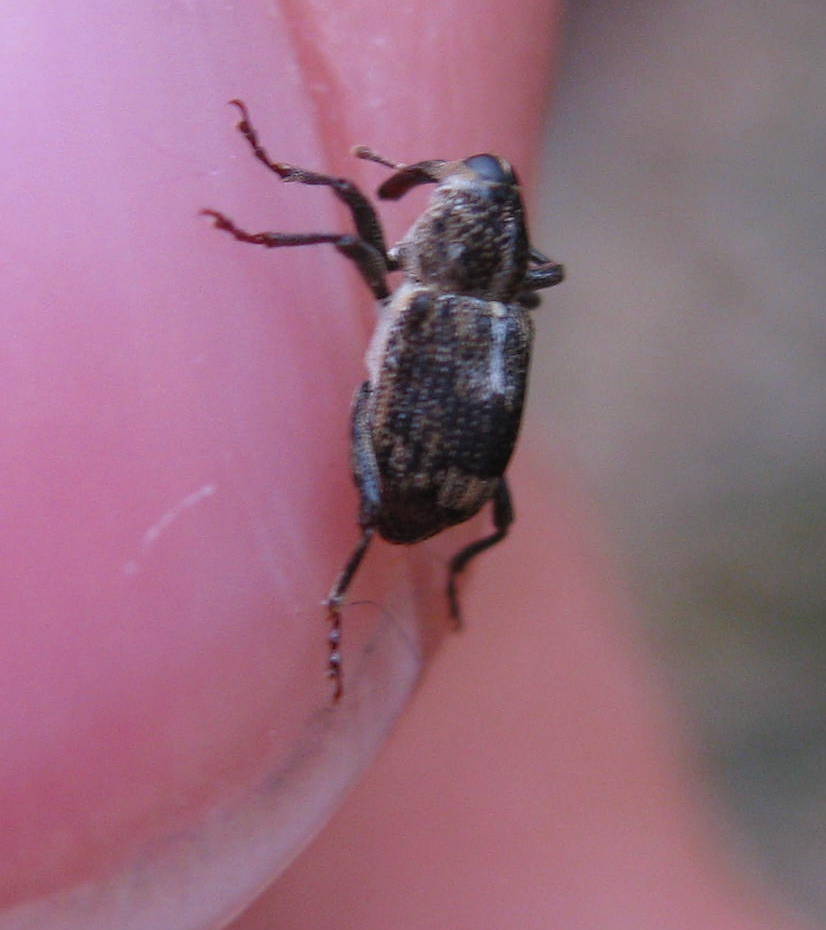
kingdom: Animalia
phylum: Arthropoda
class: Insecta
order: Coleoptera
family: Curculionidae
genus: Acoptus
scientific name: Acoptus suturalis
